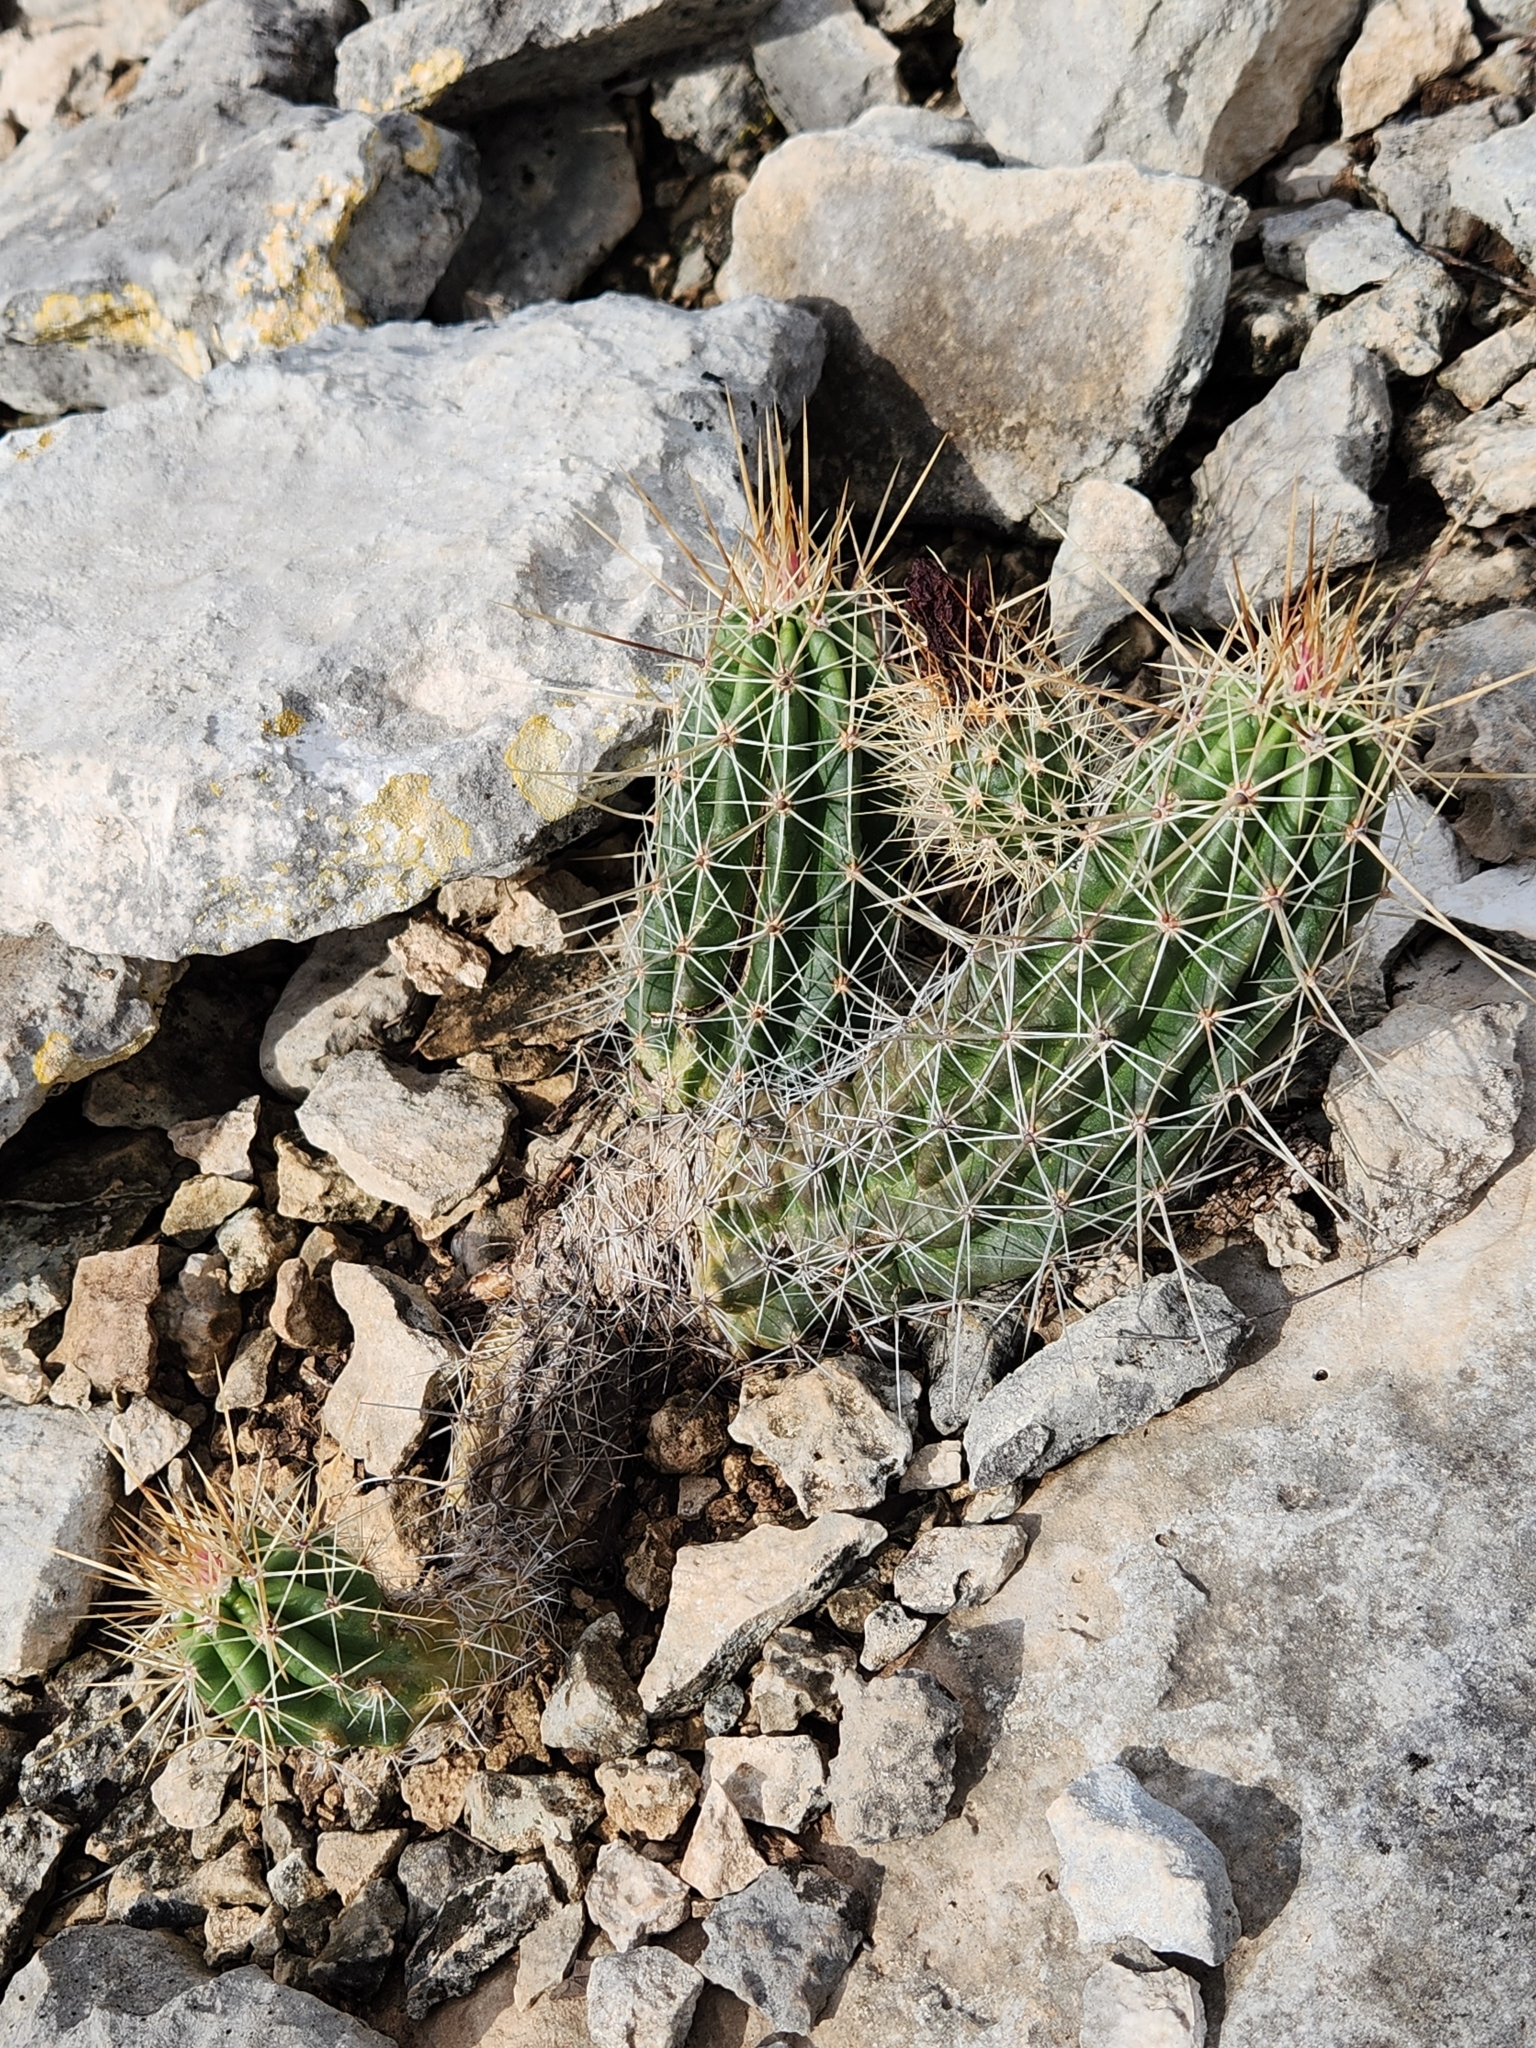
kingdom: Plantae
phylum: Tracheophyta
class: Magnoliopsida
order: Caryophyllales
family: Cactaceae
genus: Echinocereus
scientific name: Echinocereus enneacanthus
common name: Pitaya
